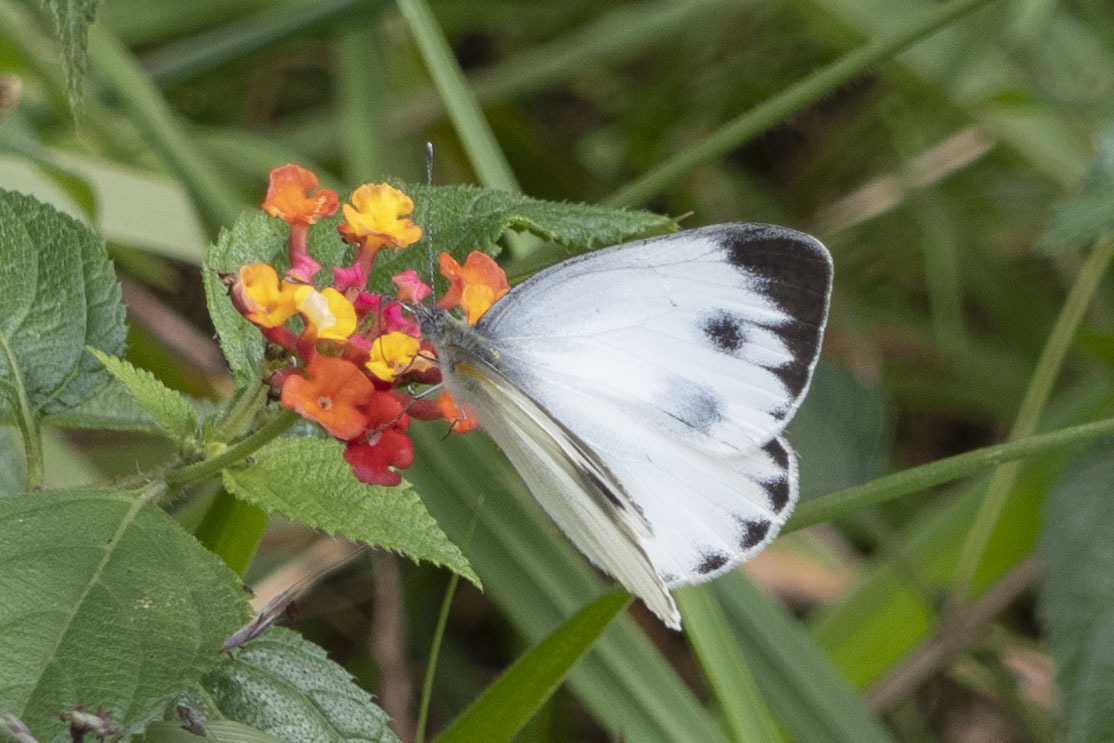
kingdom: Animalia
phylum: Arthropoda
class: Insecta
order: Lepidoptera
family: Pieridae
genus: Pieris
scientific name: Pieris canidia
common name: Indian cabbage white
